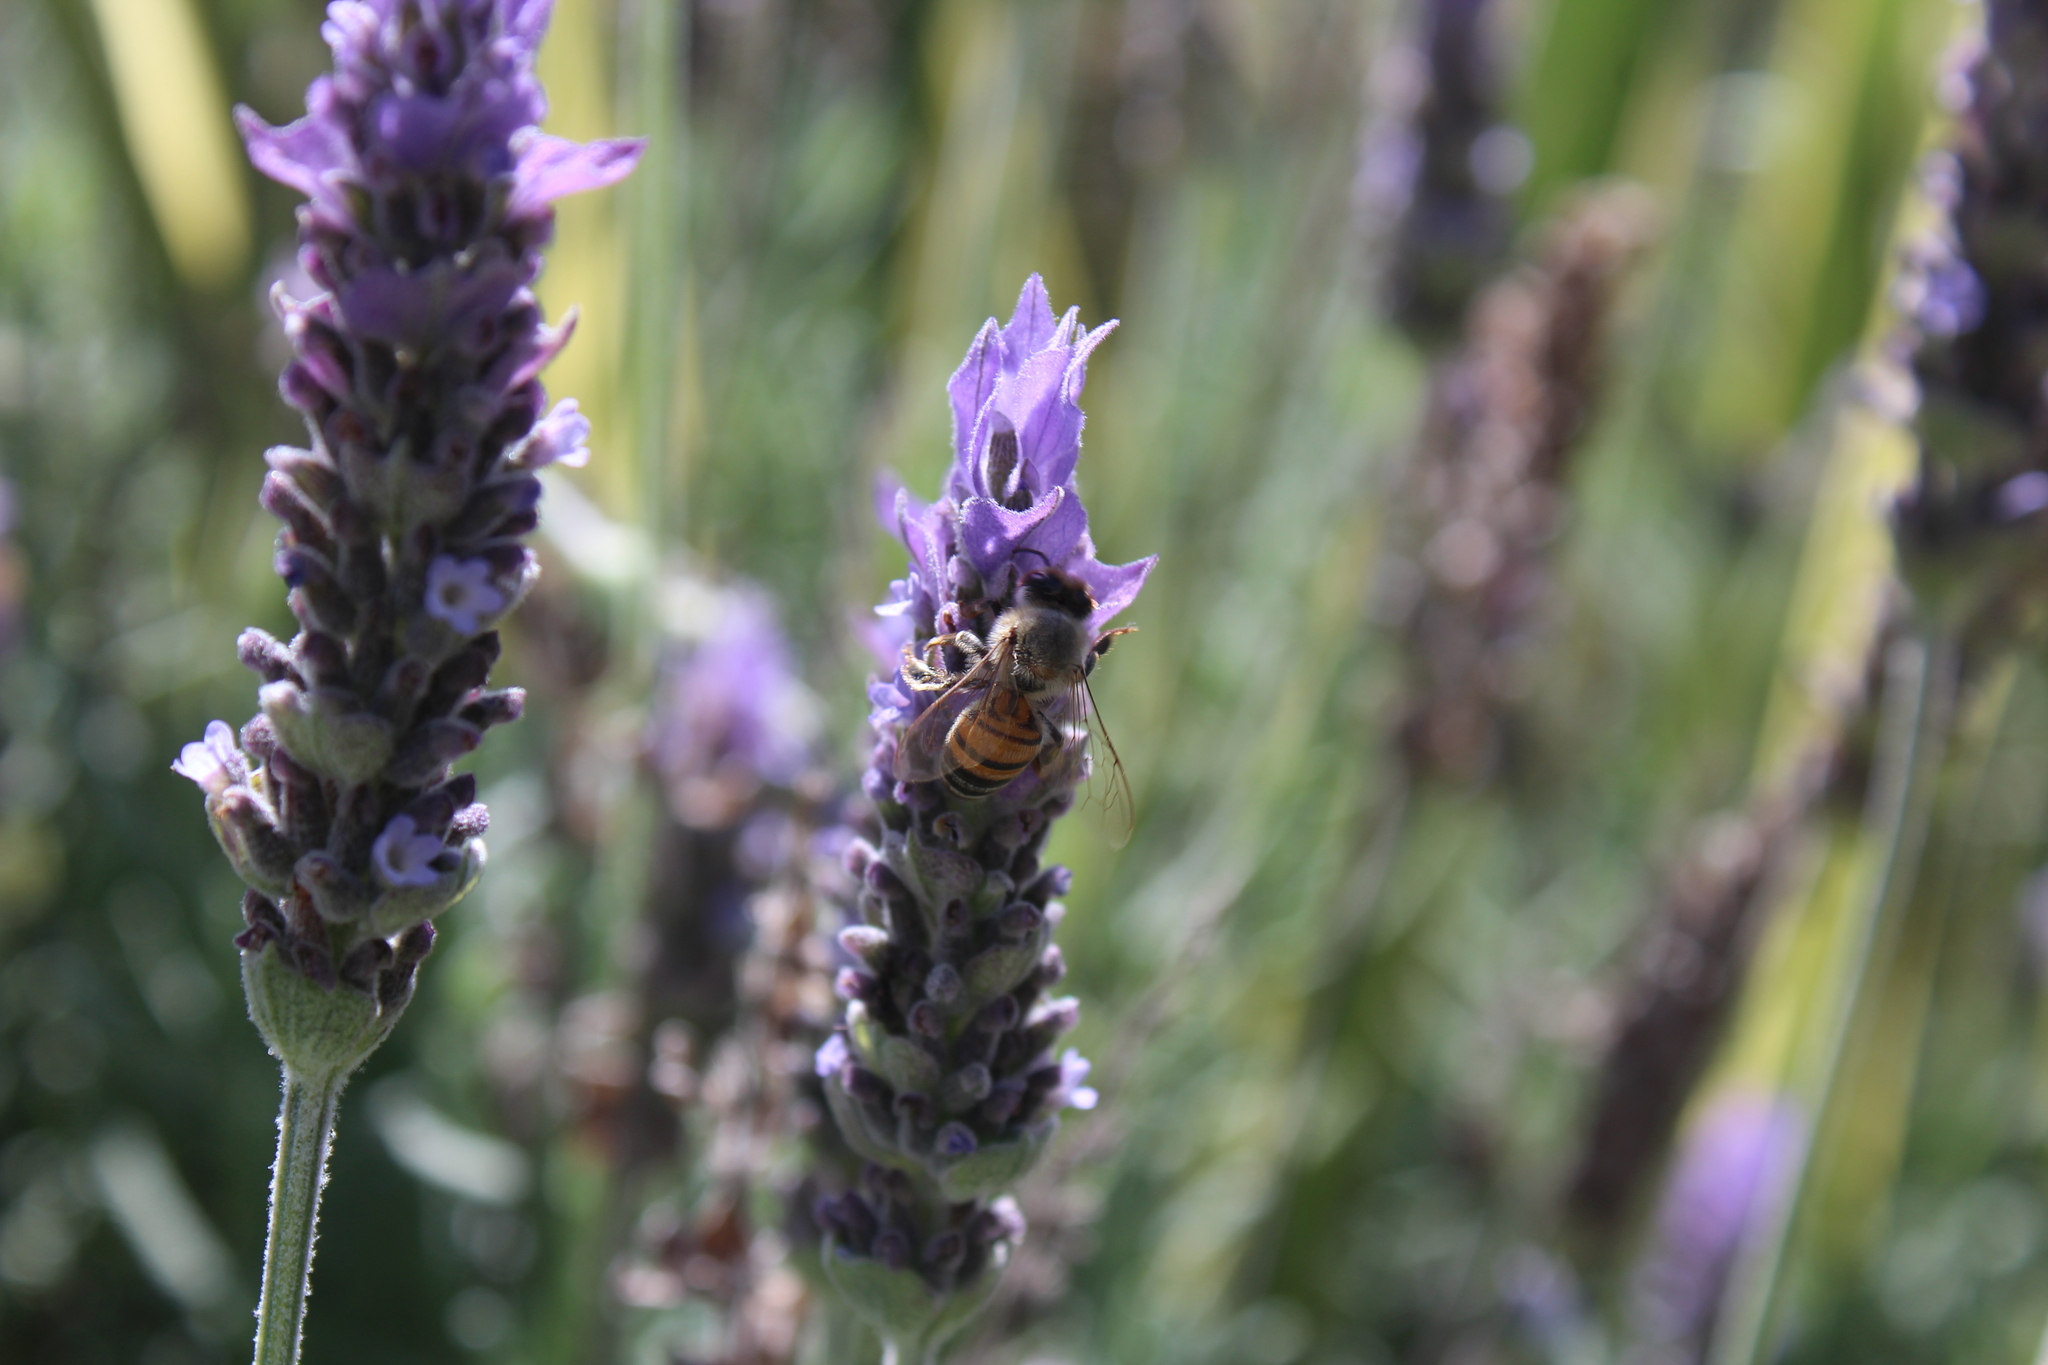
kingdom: Animalia
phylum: Arthropoda
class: Insecta
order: Hymenoptera
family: Apidae
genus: Apis
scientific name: Apis mellifera
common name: Honey bee
